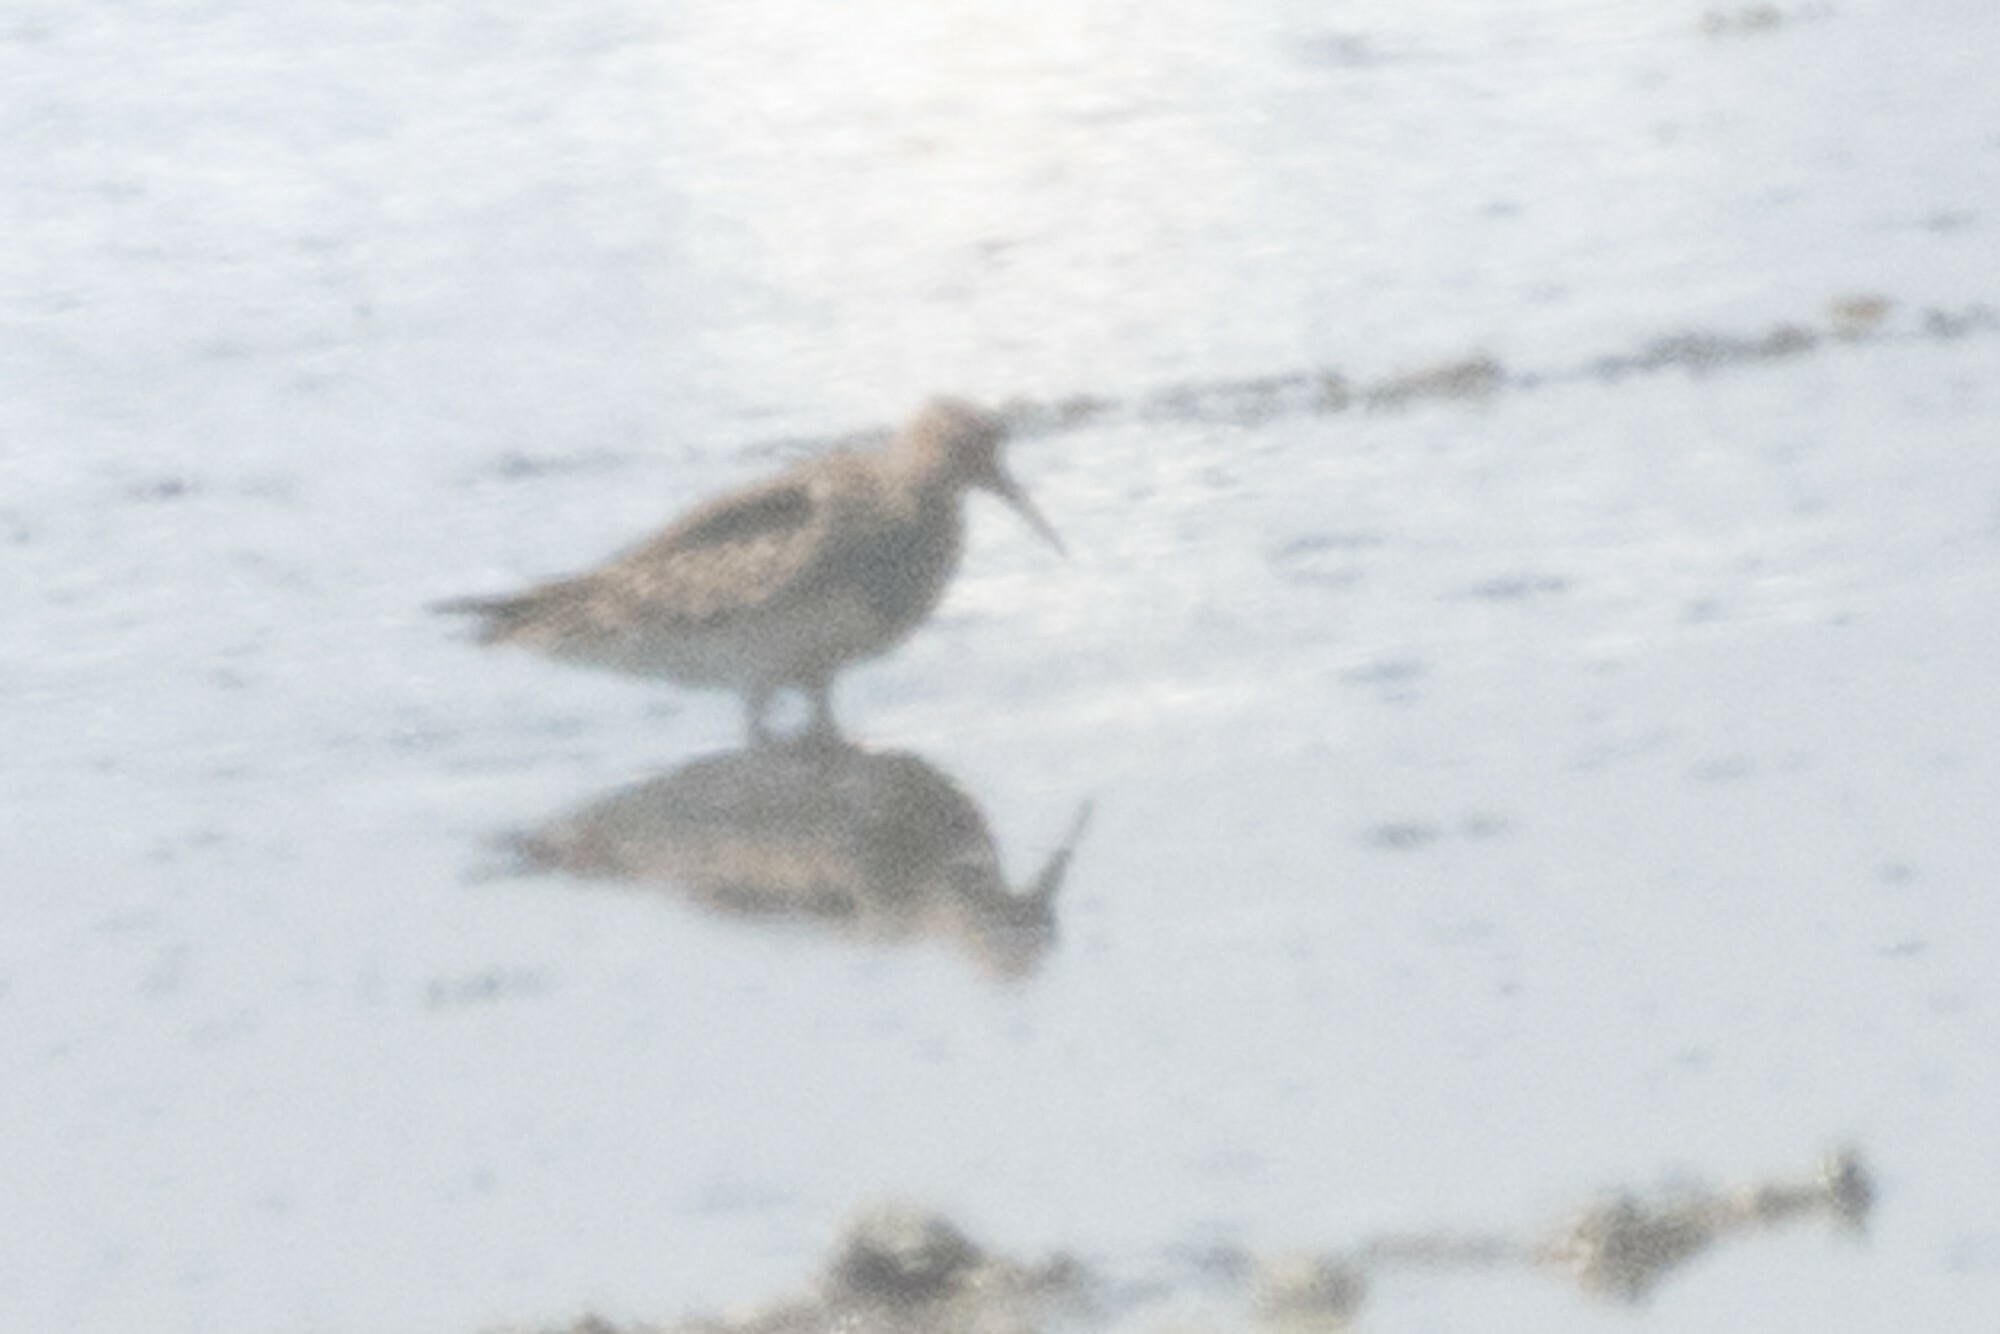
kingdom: Animalia
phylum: Chordata
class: Aves
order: Charadriiformes
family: Scolopacidae
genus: Calidris
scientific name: Calidris melanotos
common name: Pectoral sandpiper
